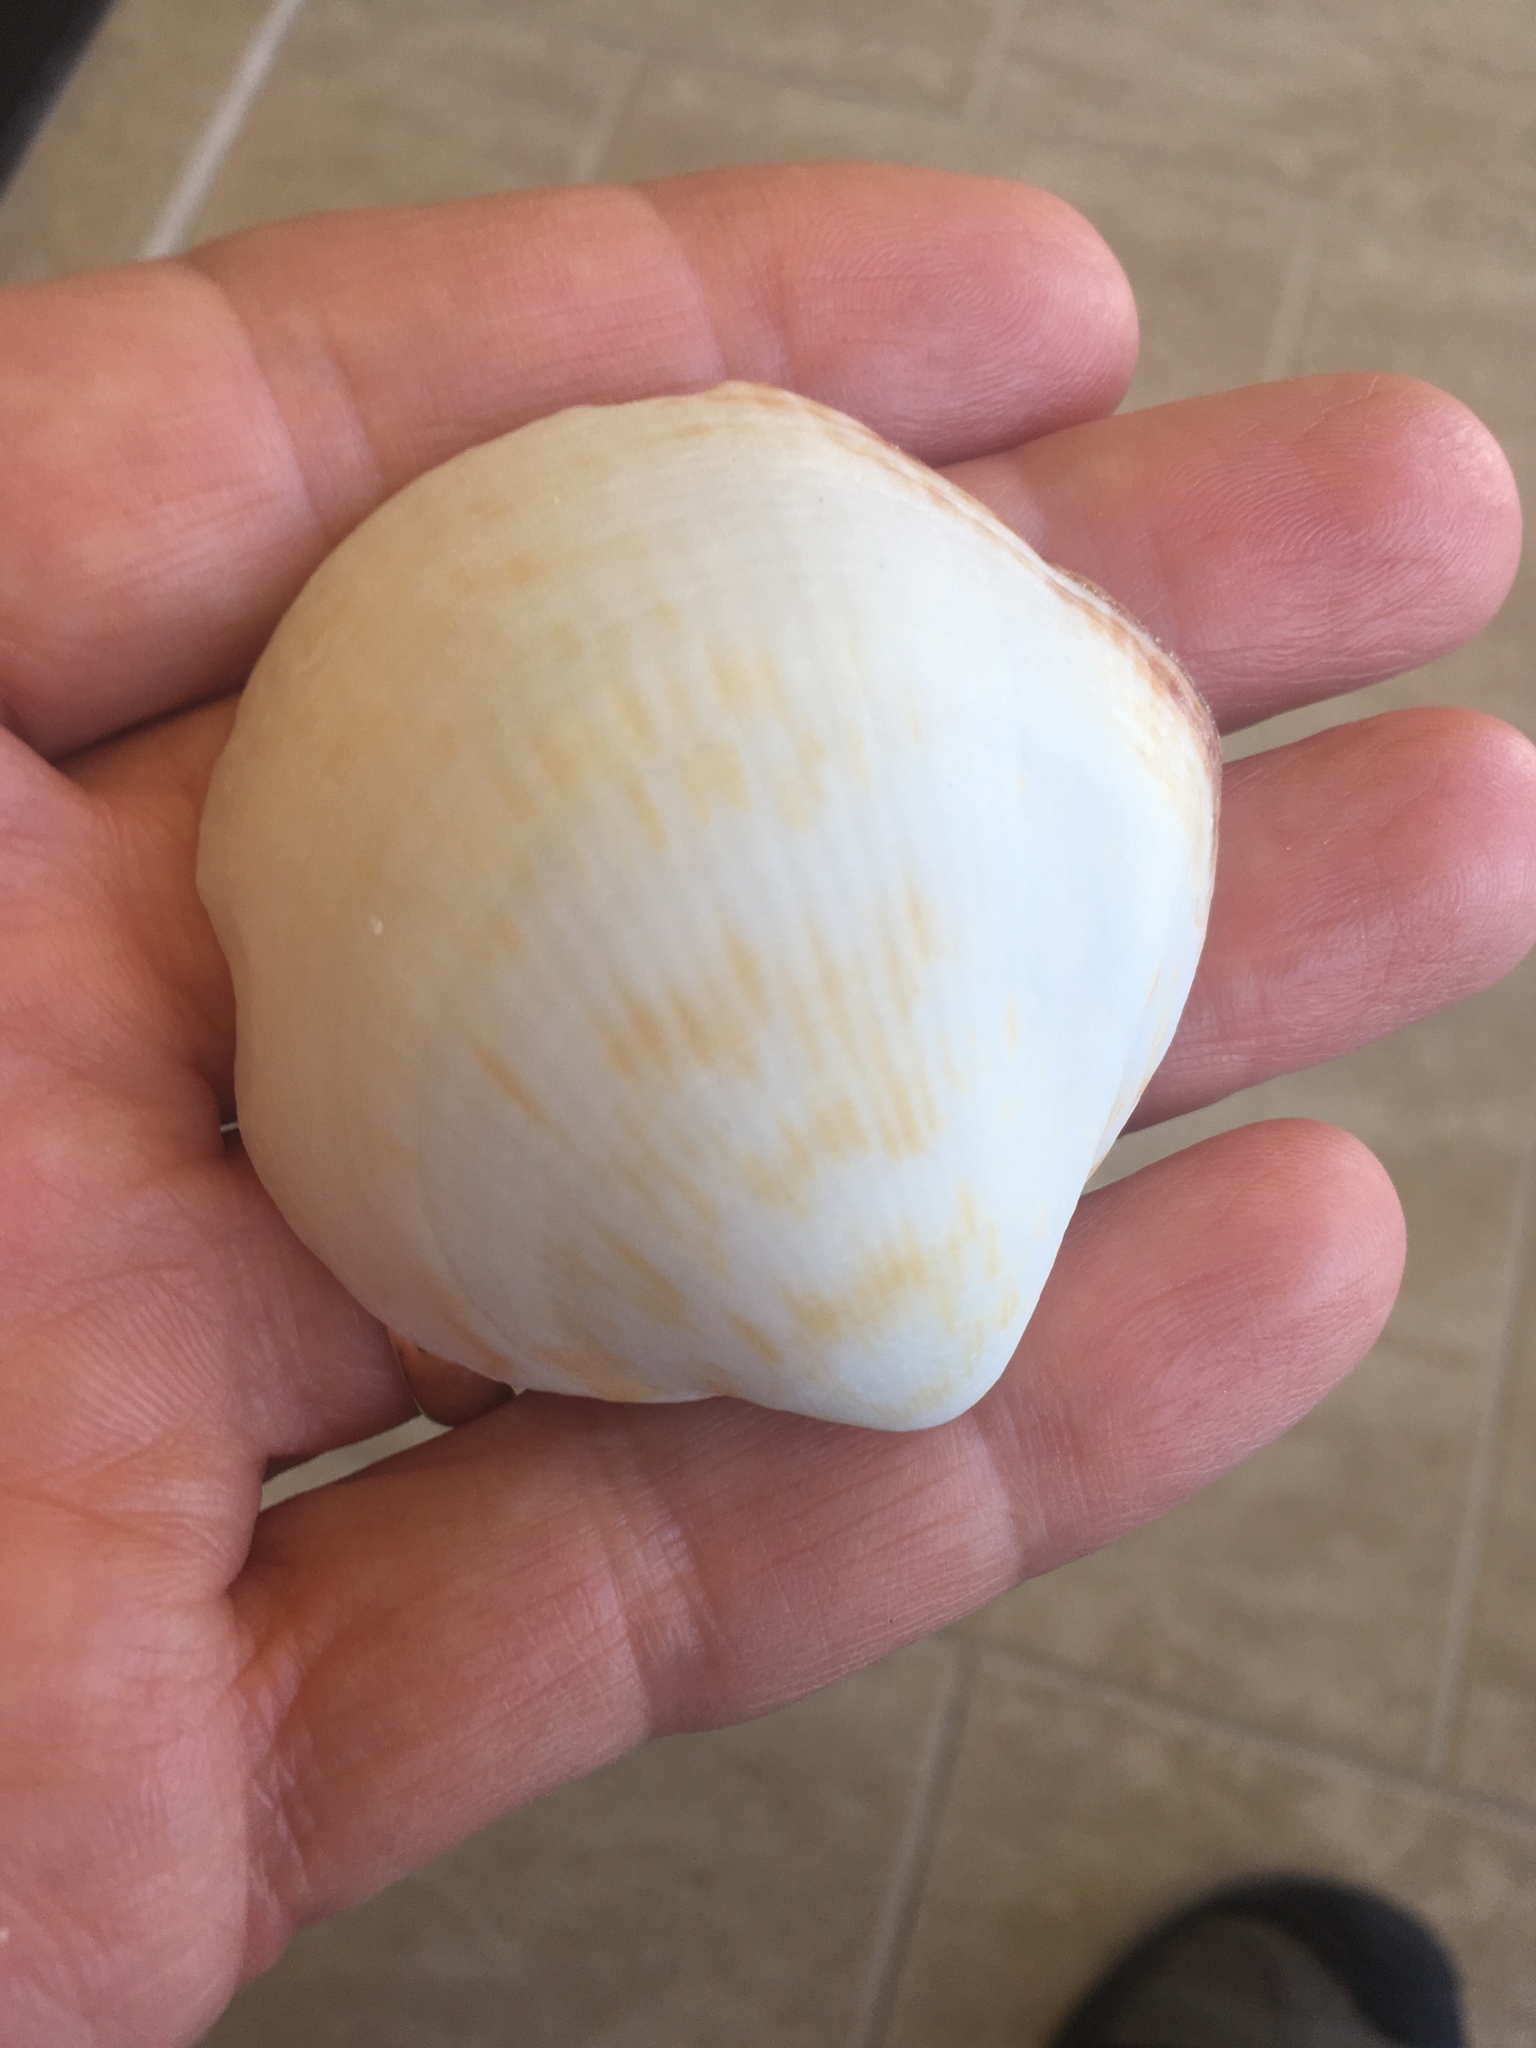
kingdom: Animalia
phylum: Mollusca
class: Bivalvia
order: Arcida
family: Glycymerididae
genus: Glycymeris
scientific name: Glycymeris undata
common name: Atlantic bittersweet
